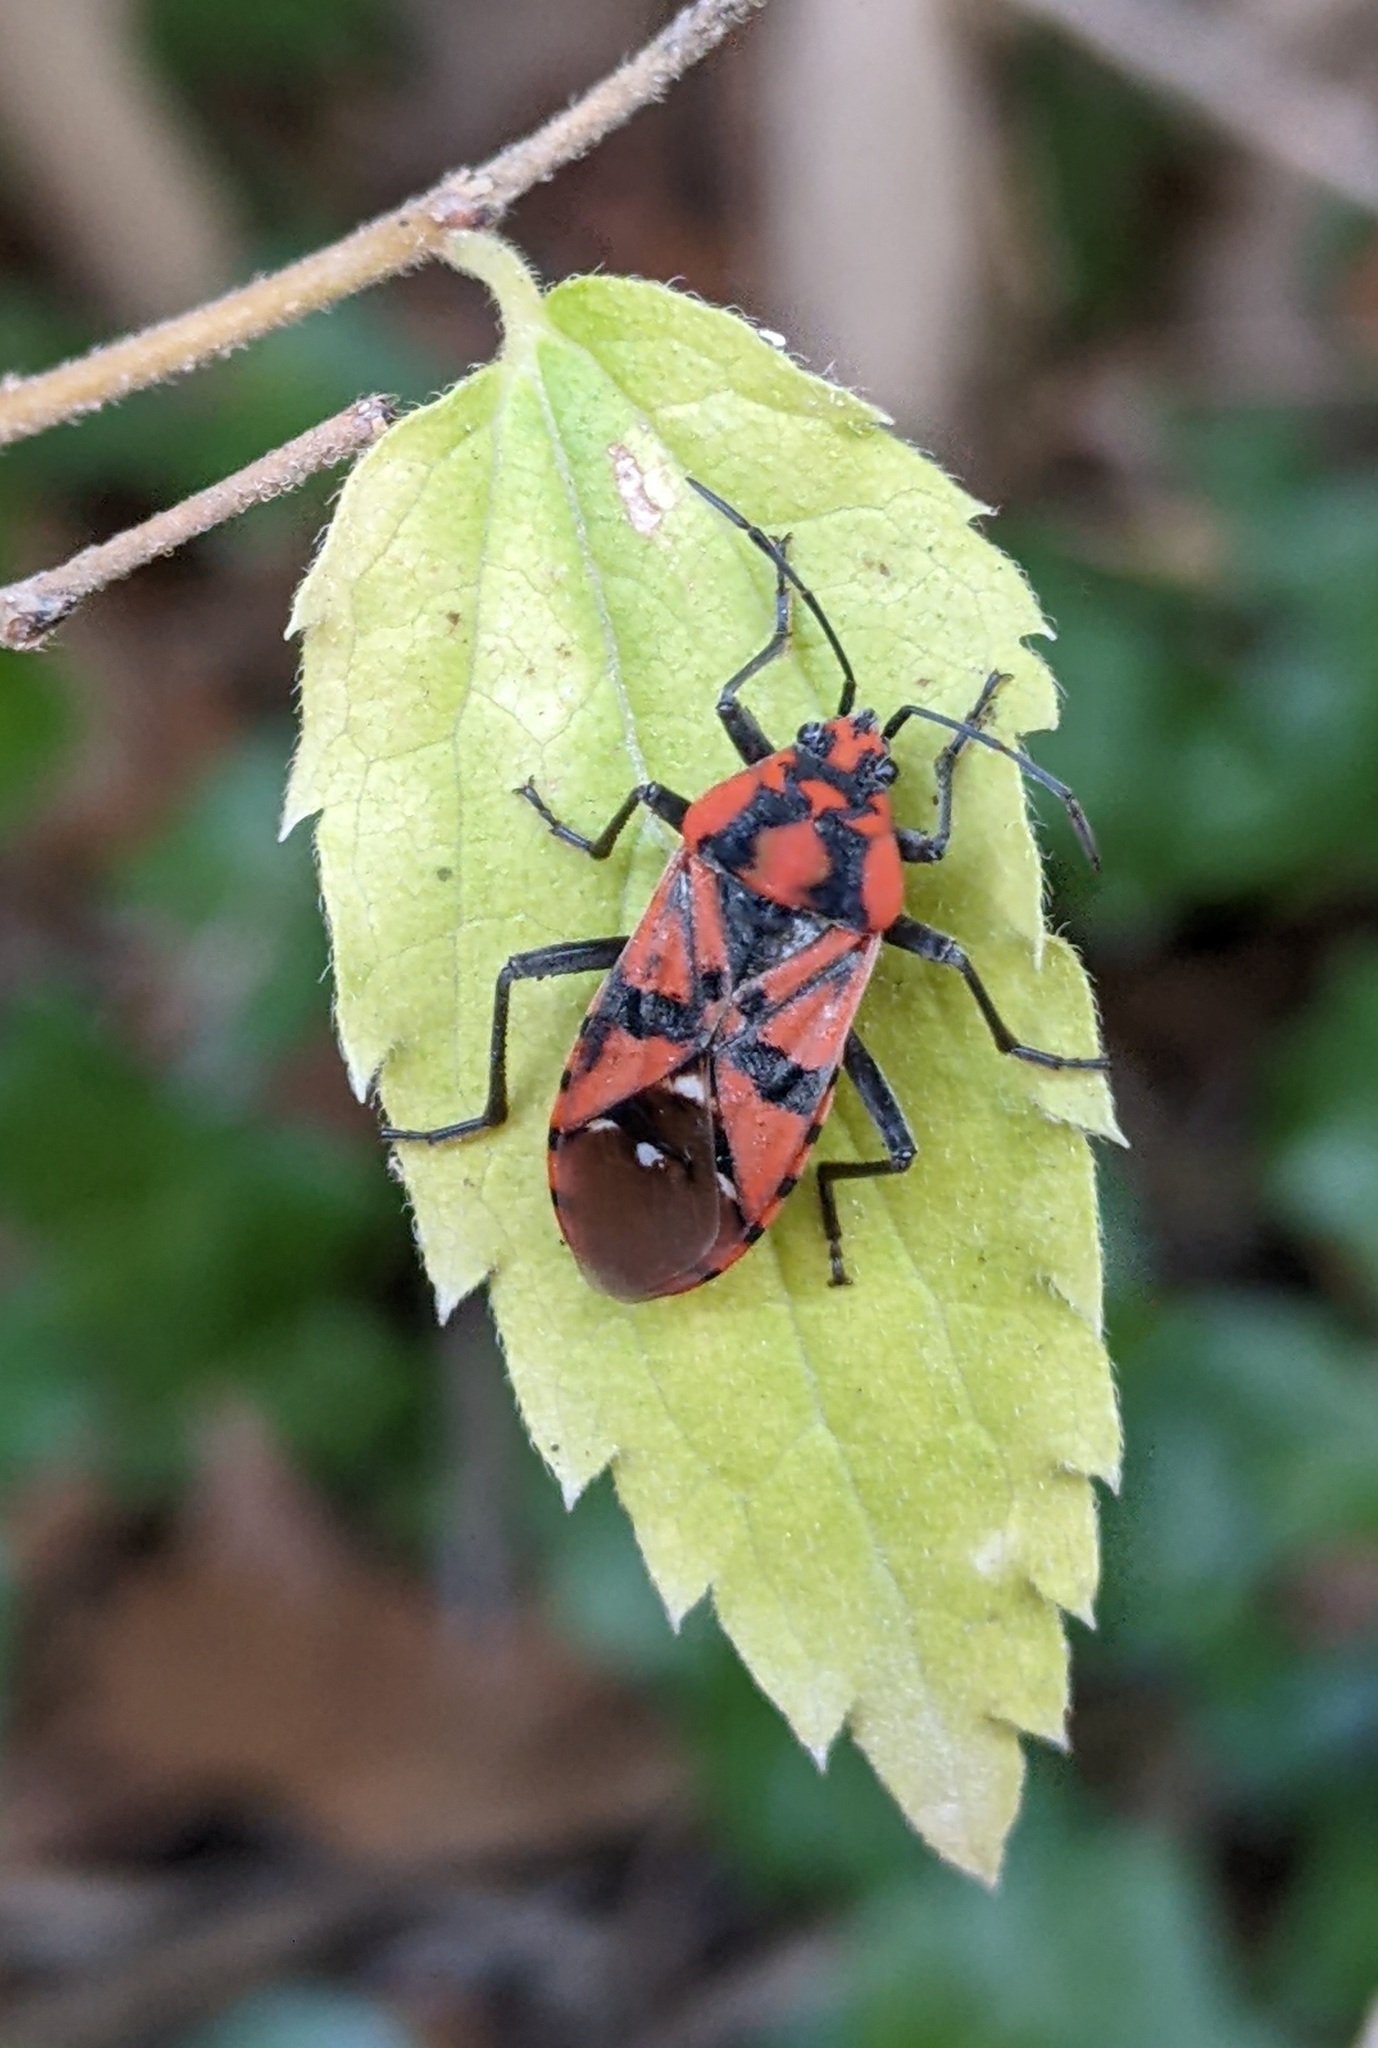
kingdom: Animalia
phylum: Arthropoda
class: Insecta
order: Hemiptera
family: Lygaeidae
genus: Spilostethus
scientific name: Spilostethus pandurus
